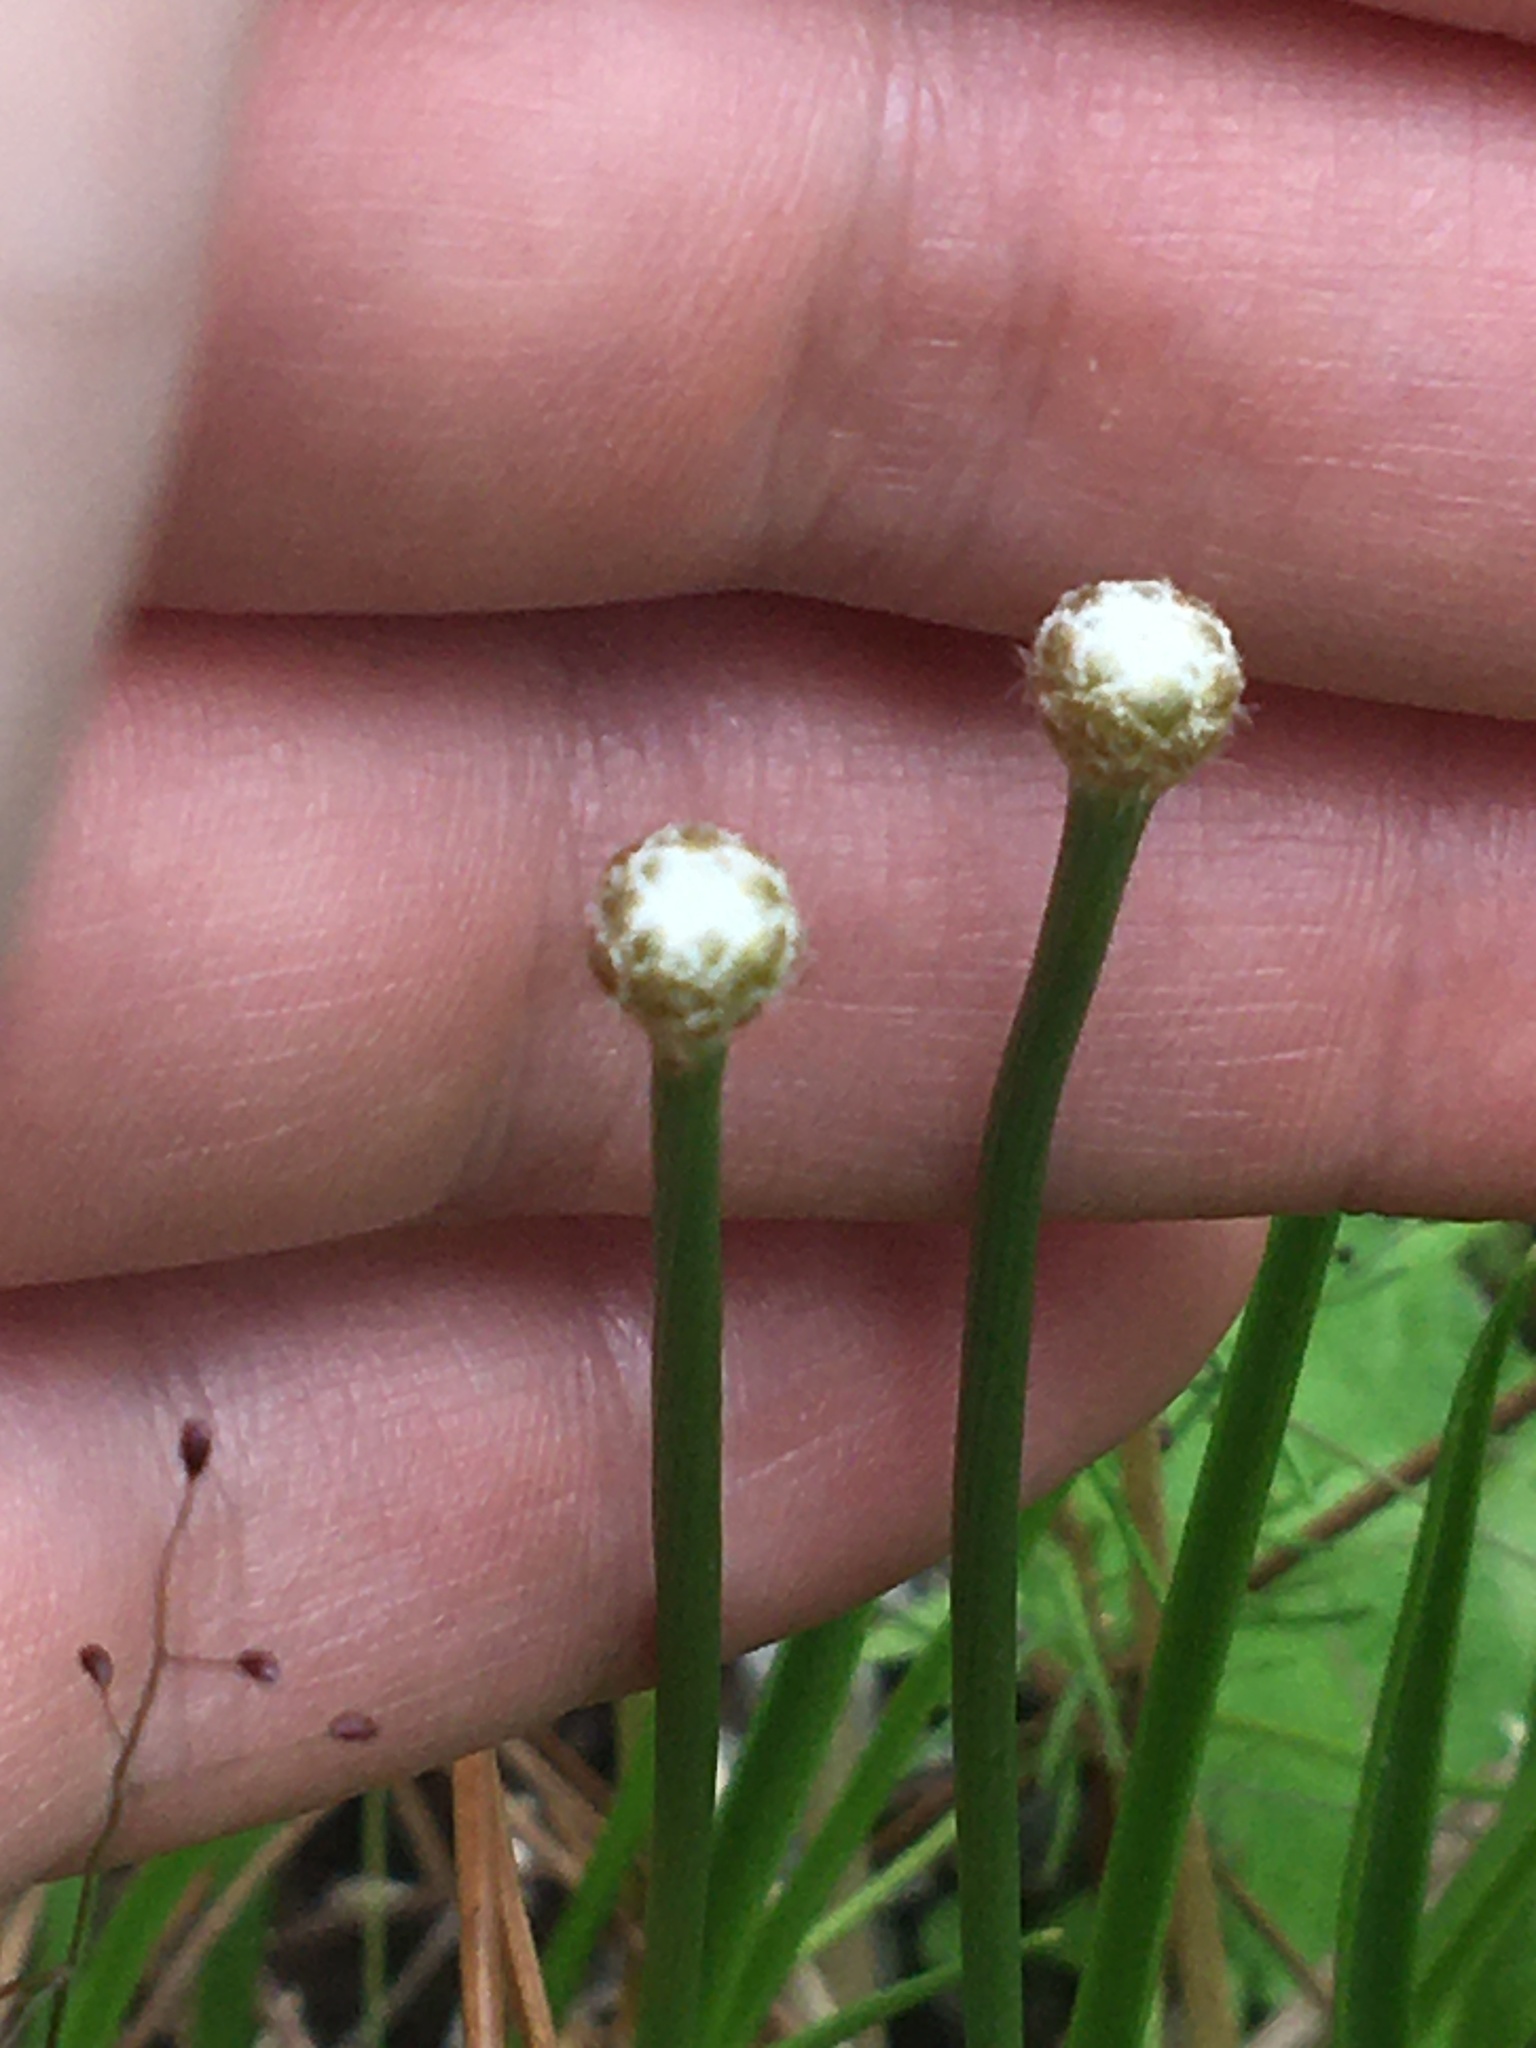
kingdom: Plantae
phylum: Tracheophyta
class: Liliopsida
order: Poales
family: Eriocaulaceae
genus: Eriocaulon
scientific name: Eriocaulon decangulare
